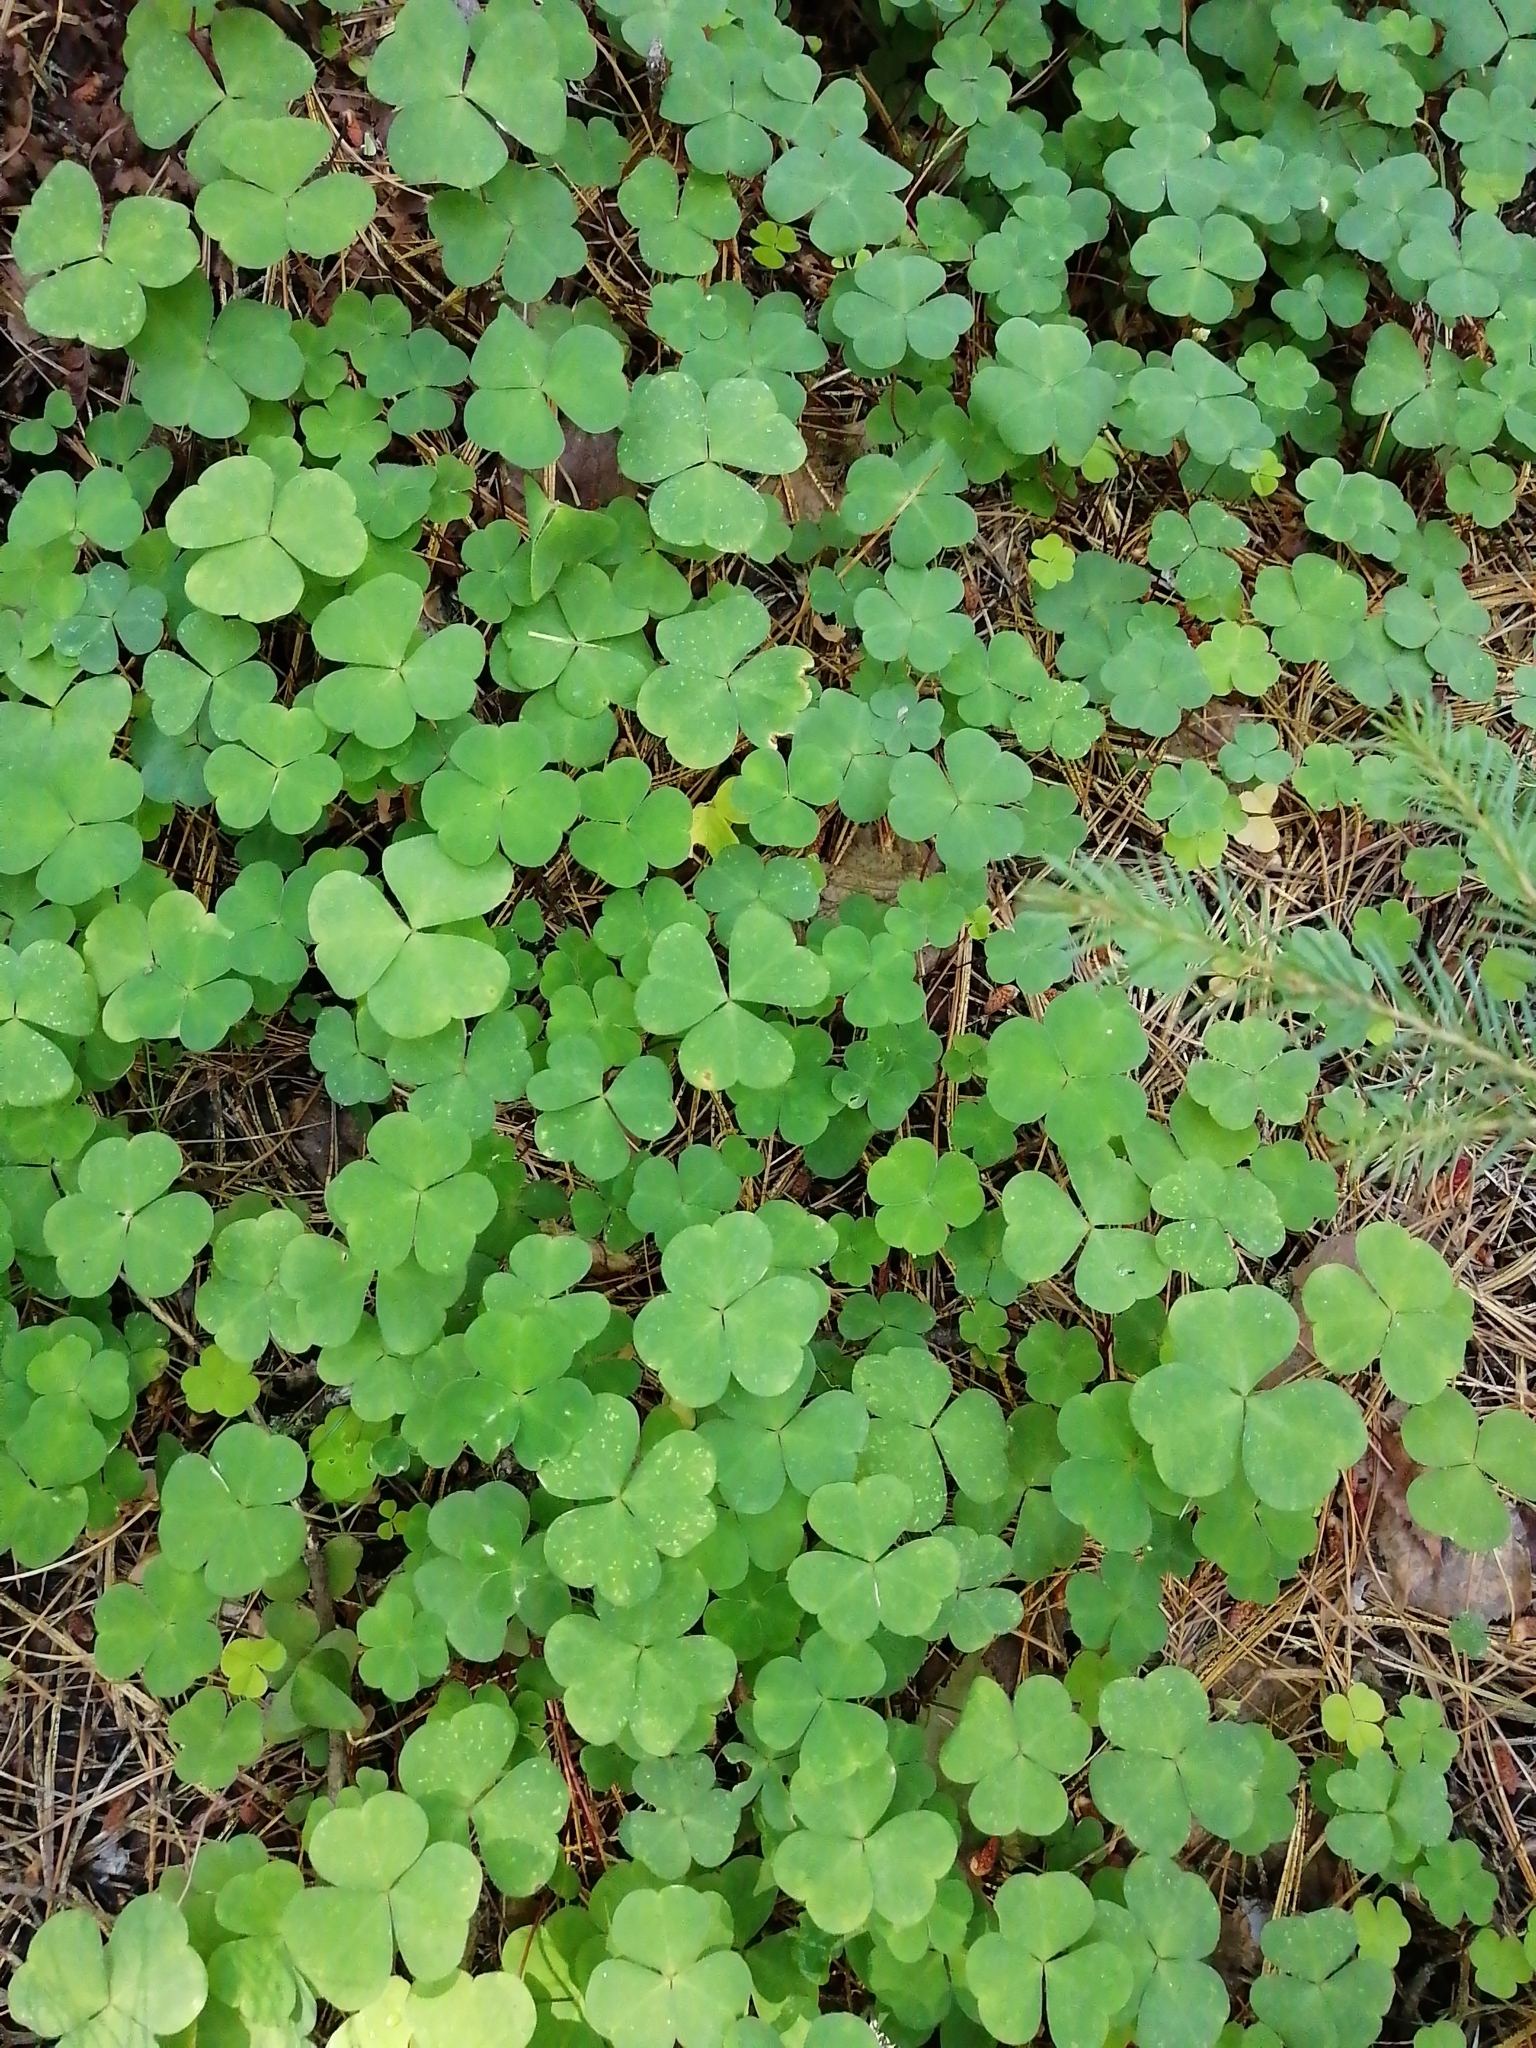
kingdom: Plantae
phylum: Tracheophyta
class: Magnoliopsida
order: Oxalidales
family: Oxalidaceae
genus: Oxalis
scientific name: Oxalis acetosella
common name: Wood-sorrel
